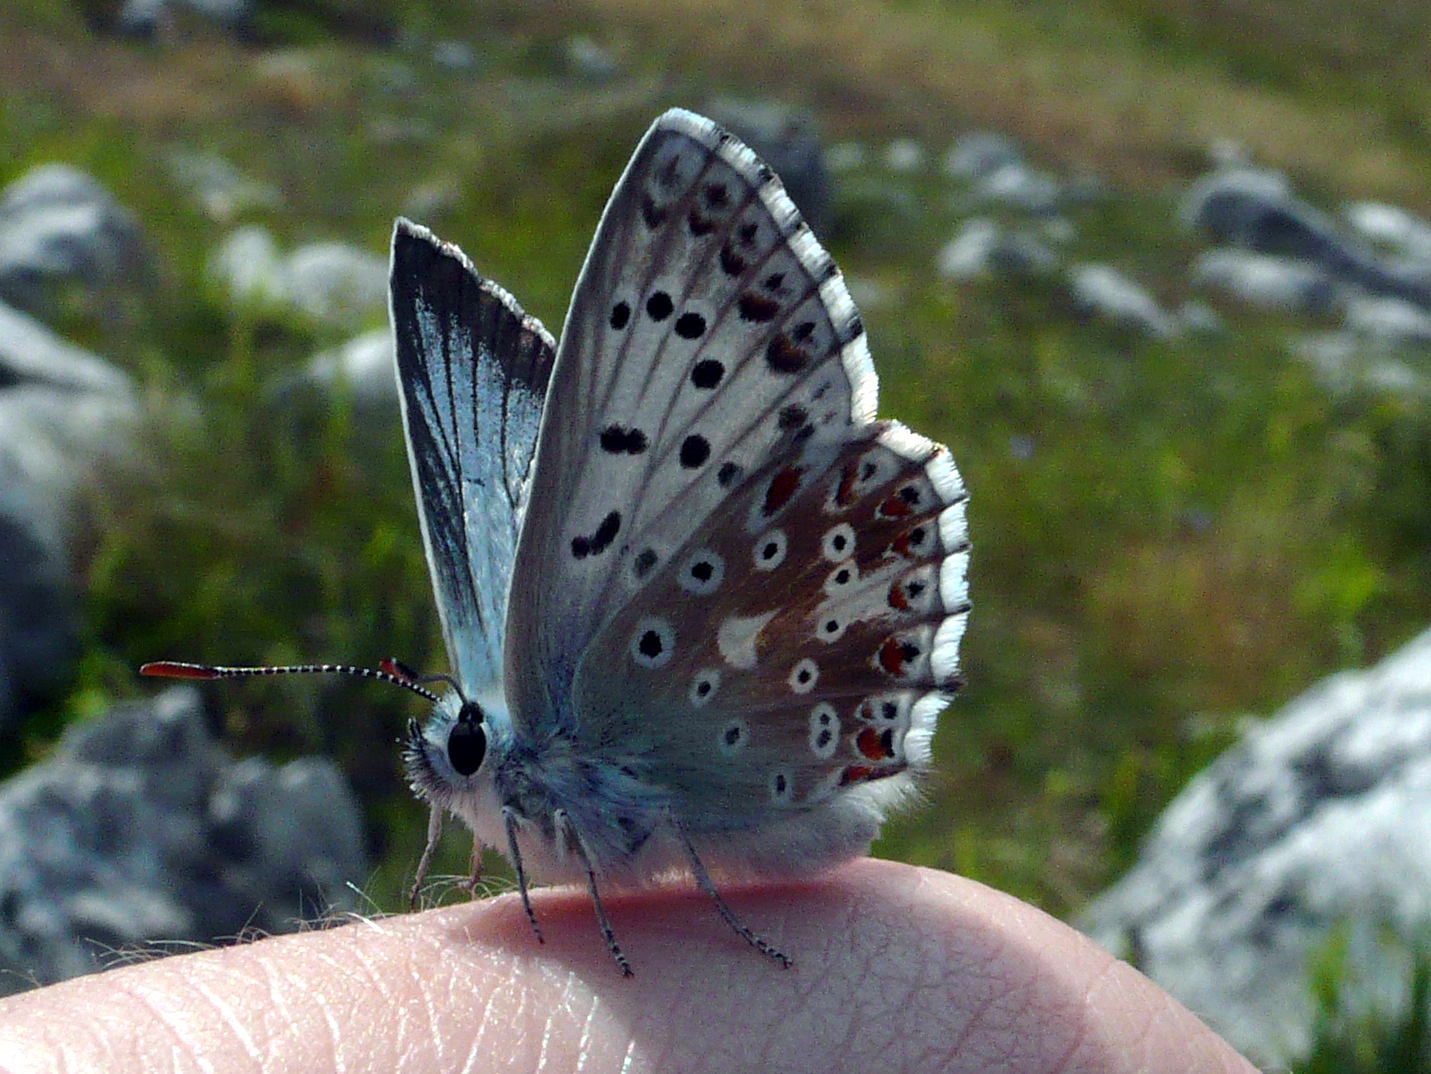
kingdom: Animalia
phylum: Arthropoda
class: Insecta
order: Lepidoptera
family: Lycaenidae
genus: Lysandra
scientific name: Lysandra coridon
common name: Chalkhill blue
